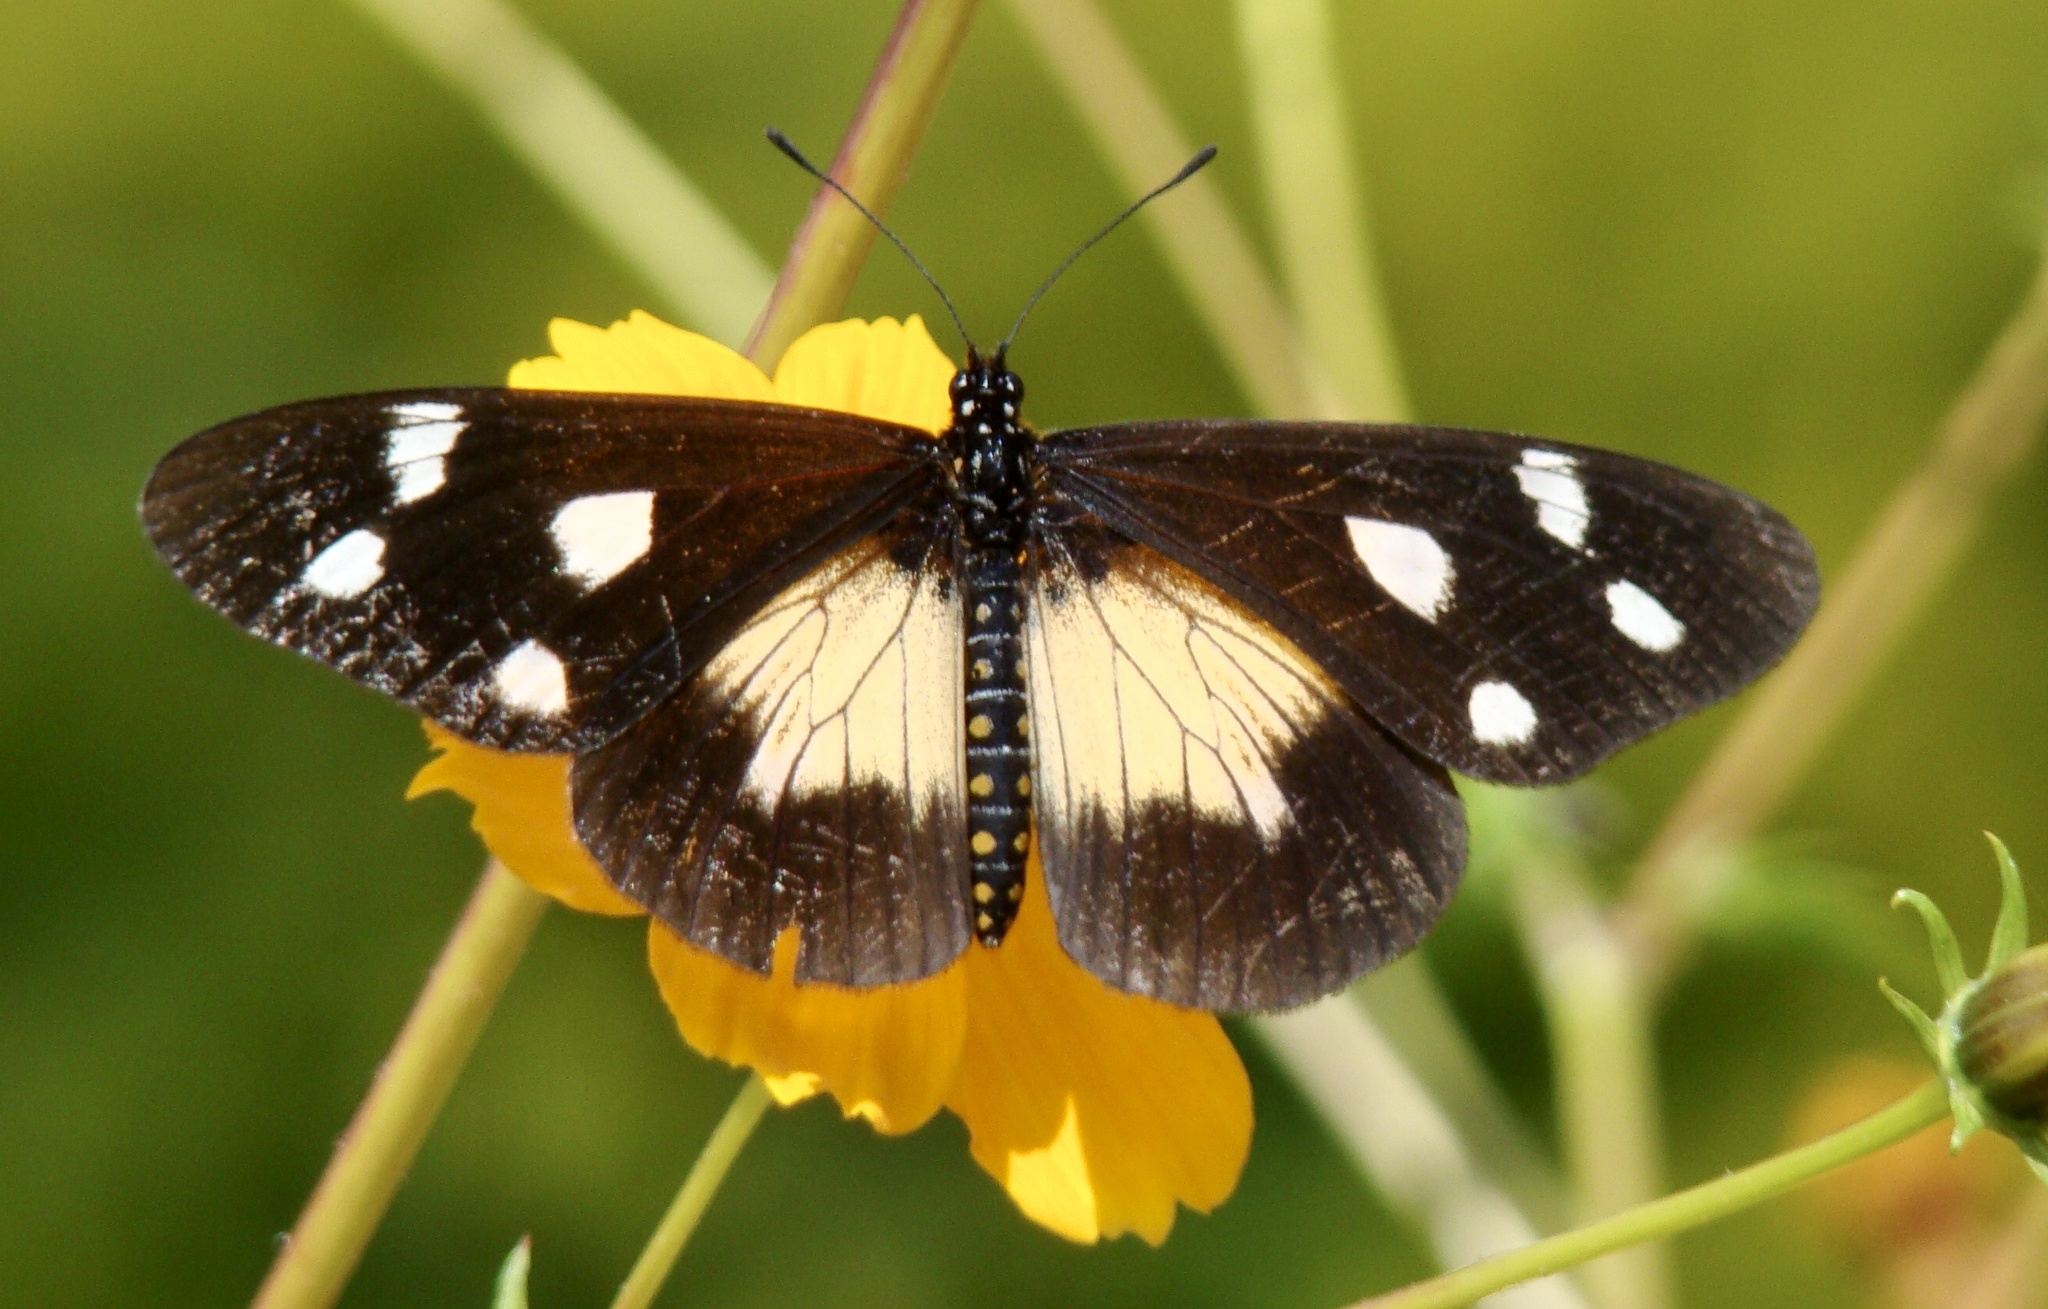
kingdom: Animalia
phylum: Arthropoda
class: Insecta
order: Lepidoptera
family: Nymphalidae
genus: Acraea
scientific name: Acraea
